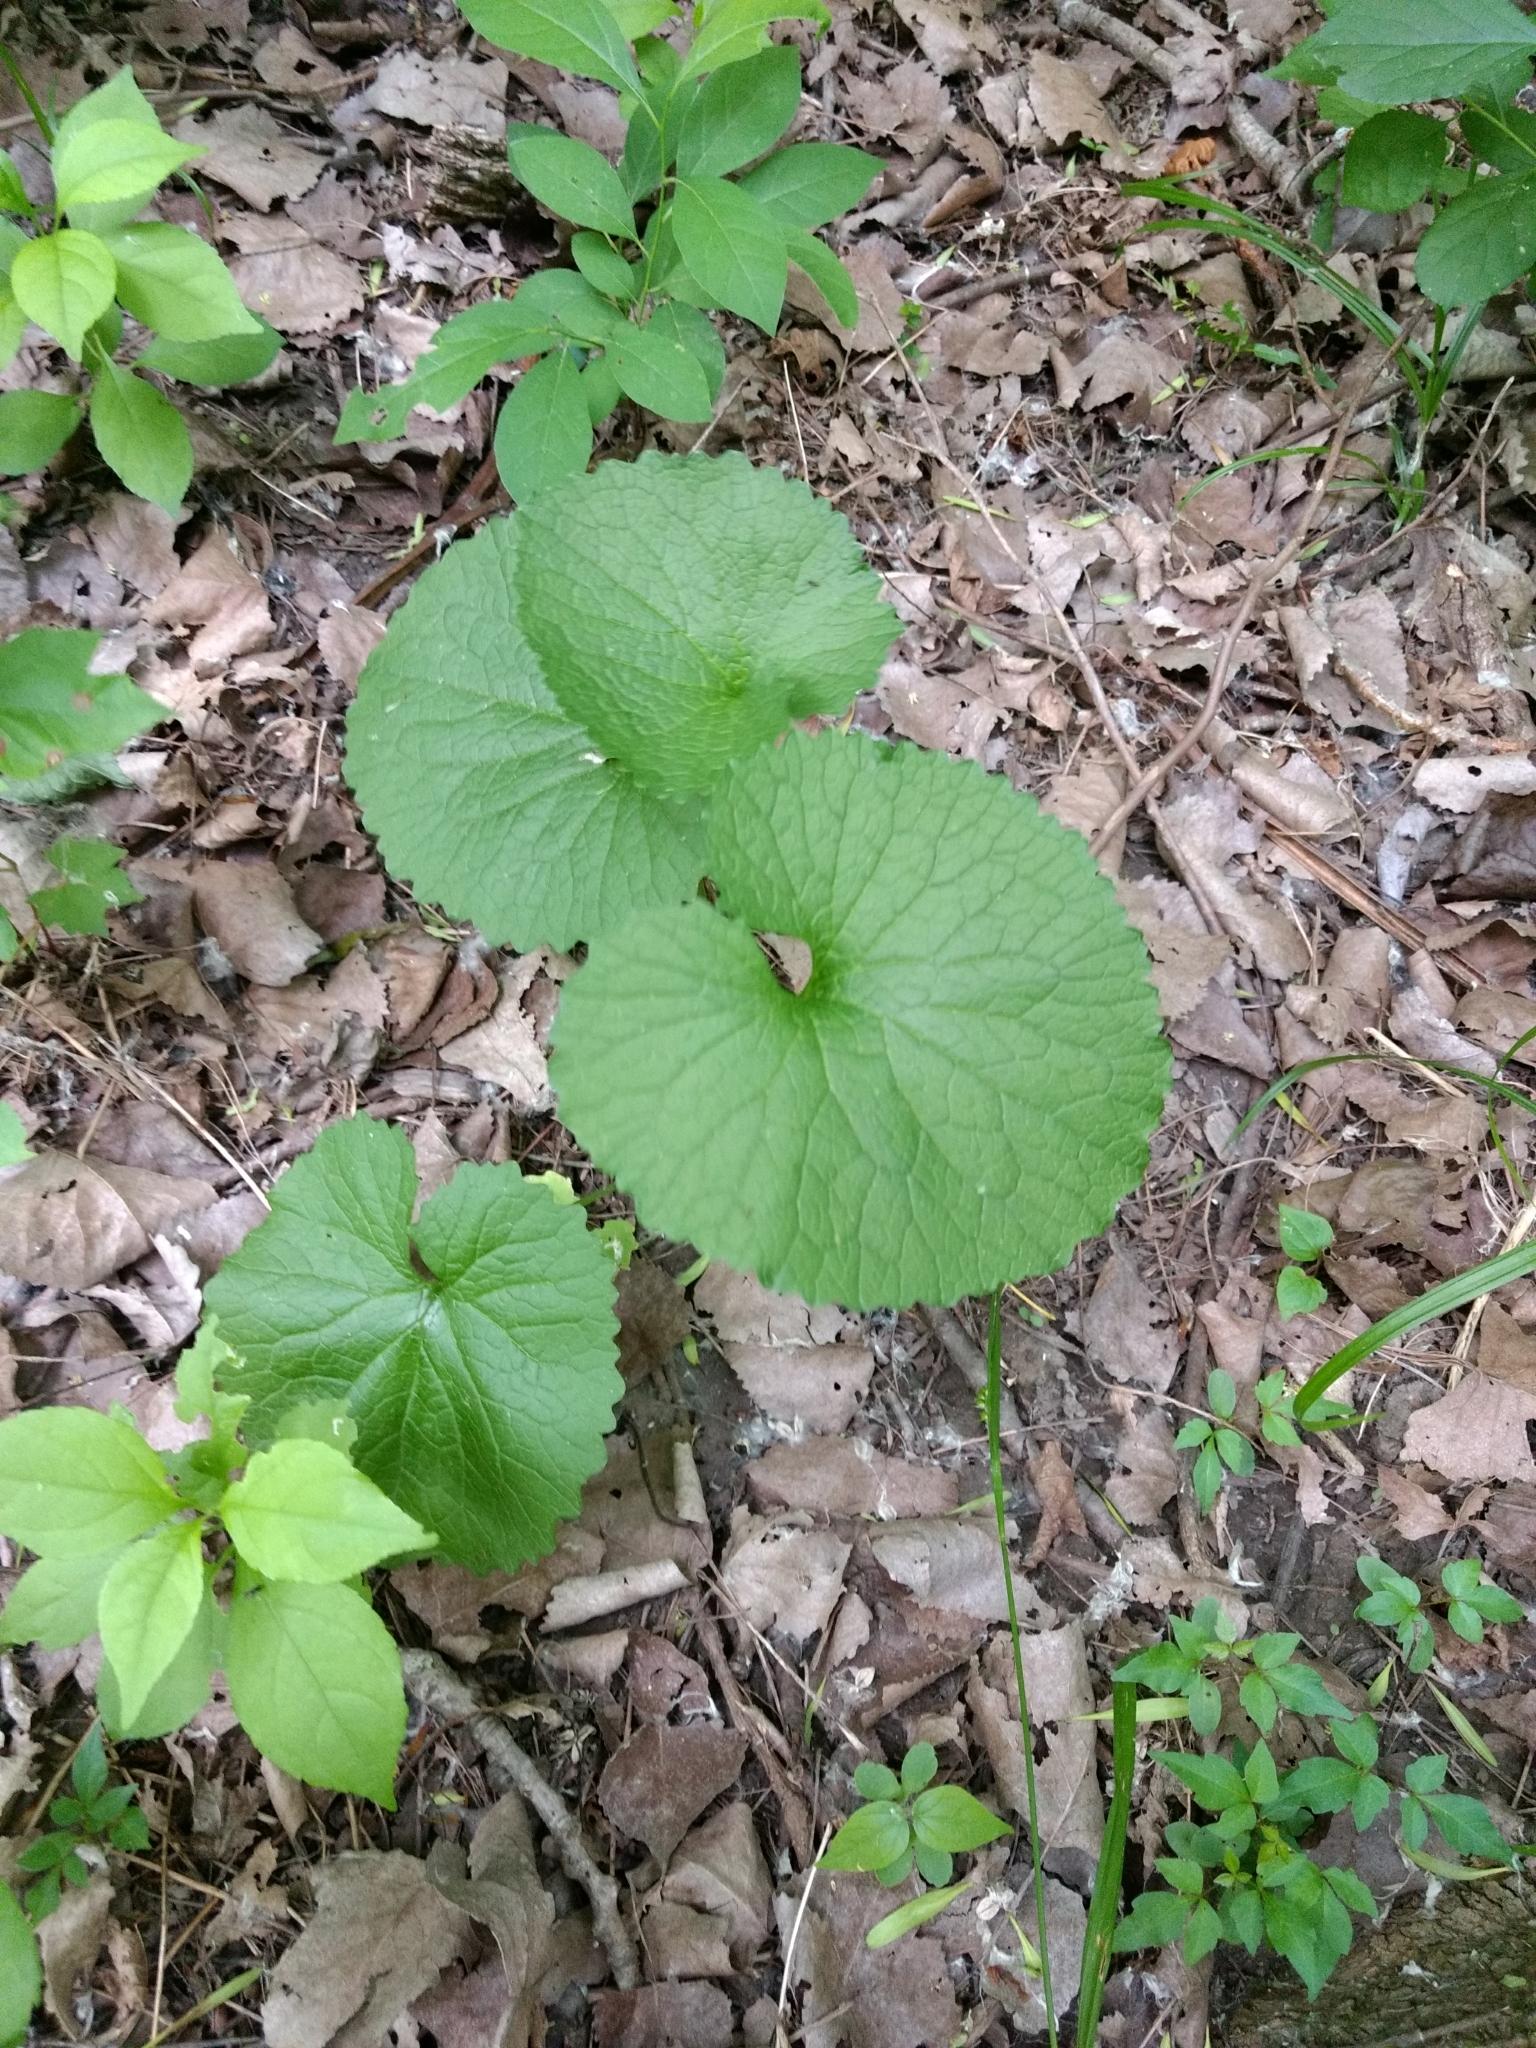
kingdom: Plantae
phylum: Tracheophyta
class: Magnoliopsida
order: Brassicales
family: Brassicaceae
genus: Alliaria
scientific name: Alliaria petiolata
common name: Garlic mustard
